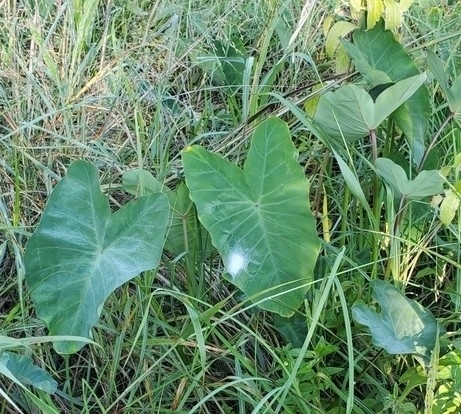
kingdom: Plantae
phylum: Tracheophyta
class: Liliopsida
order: Alismatales
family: Araceae
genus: Colocasia
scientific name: Colocasia esculenta
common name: Taro
